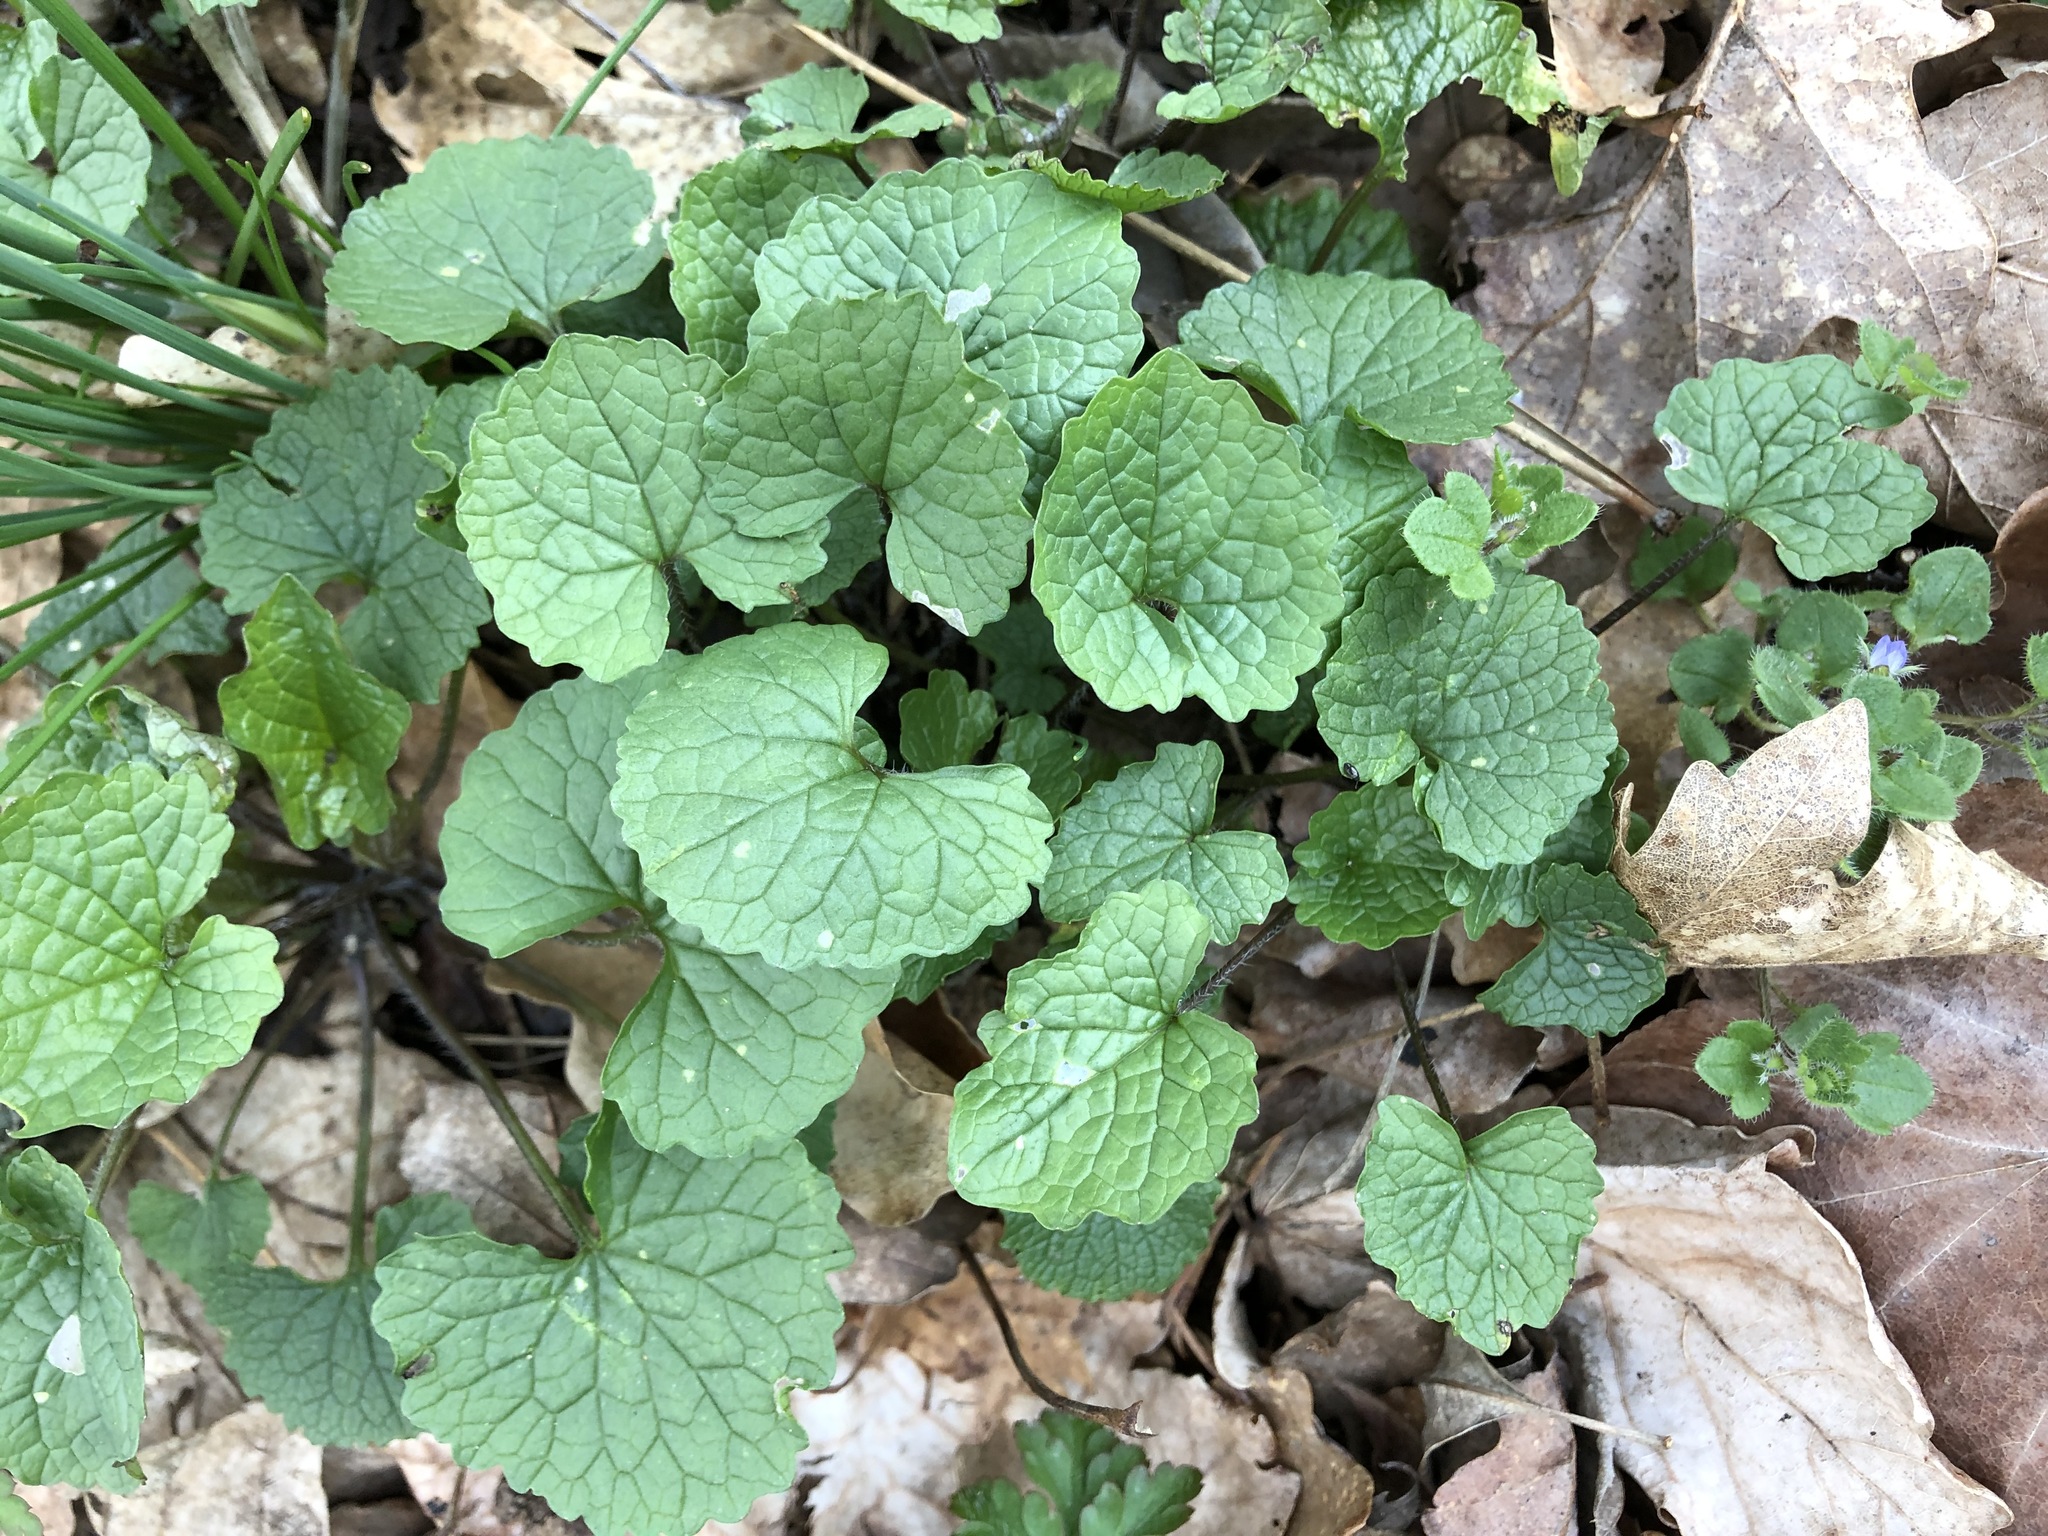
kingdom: Plantae
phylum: Tracheophyta
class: Magnoliopsida
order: Brassicales
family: Brassicaceae
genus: Alliaria
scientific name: Alliaria petiolata
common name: Garlic mustard
